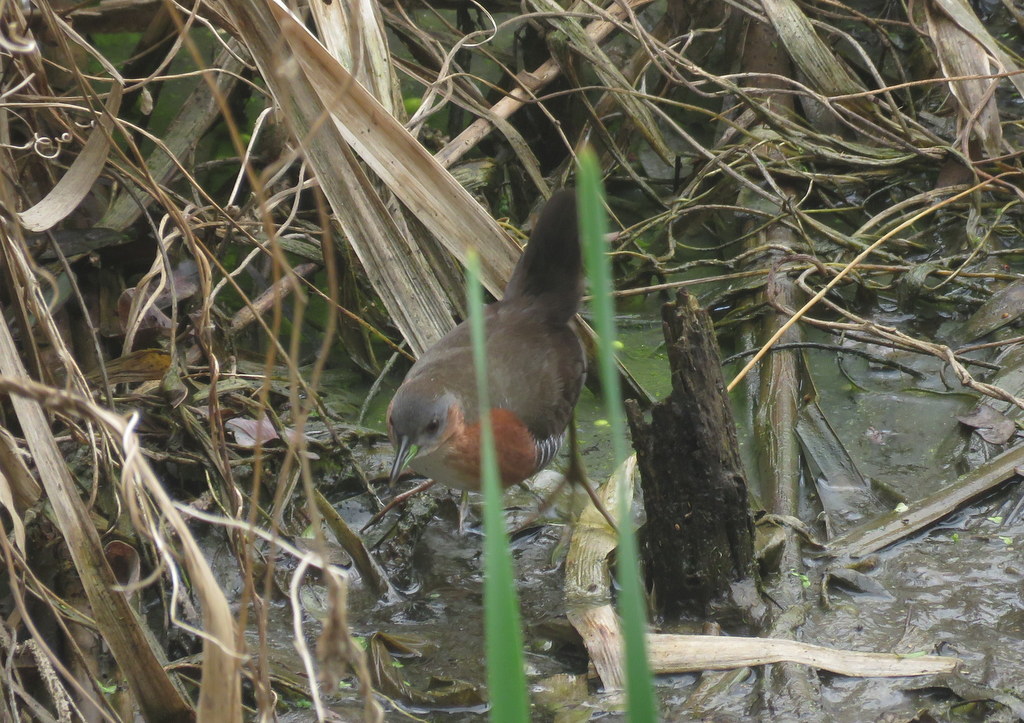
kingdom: Animalia
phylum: Chordata
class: Aves
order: Gruiformes
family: Rallidae
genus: Laterallus
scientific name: Laterallus melanophaius
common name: Rufous-sided crake
